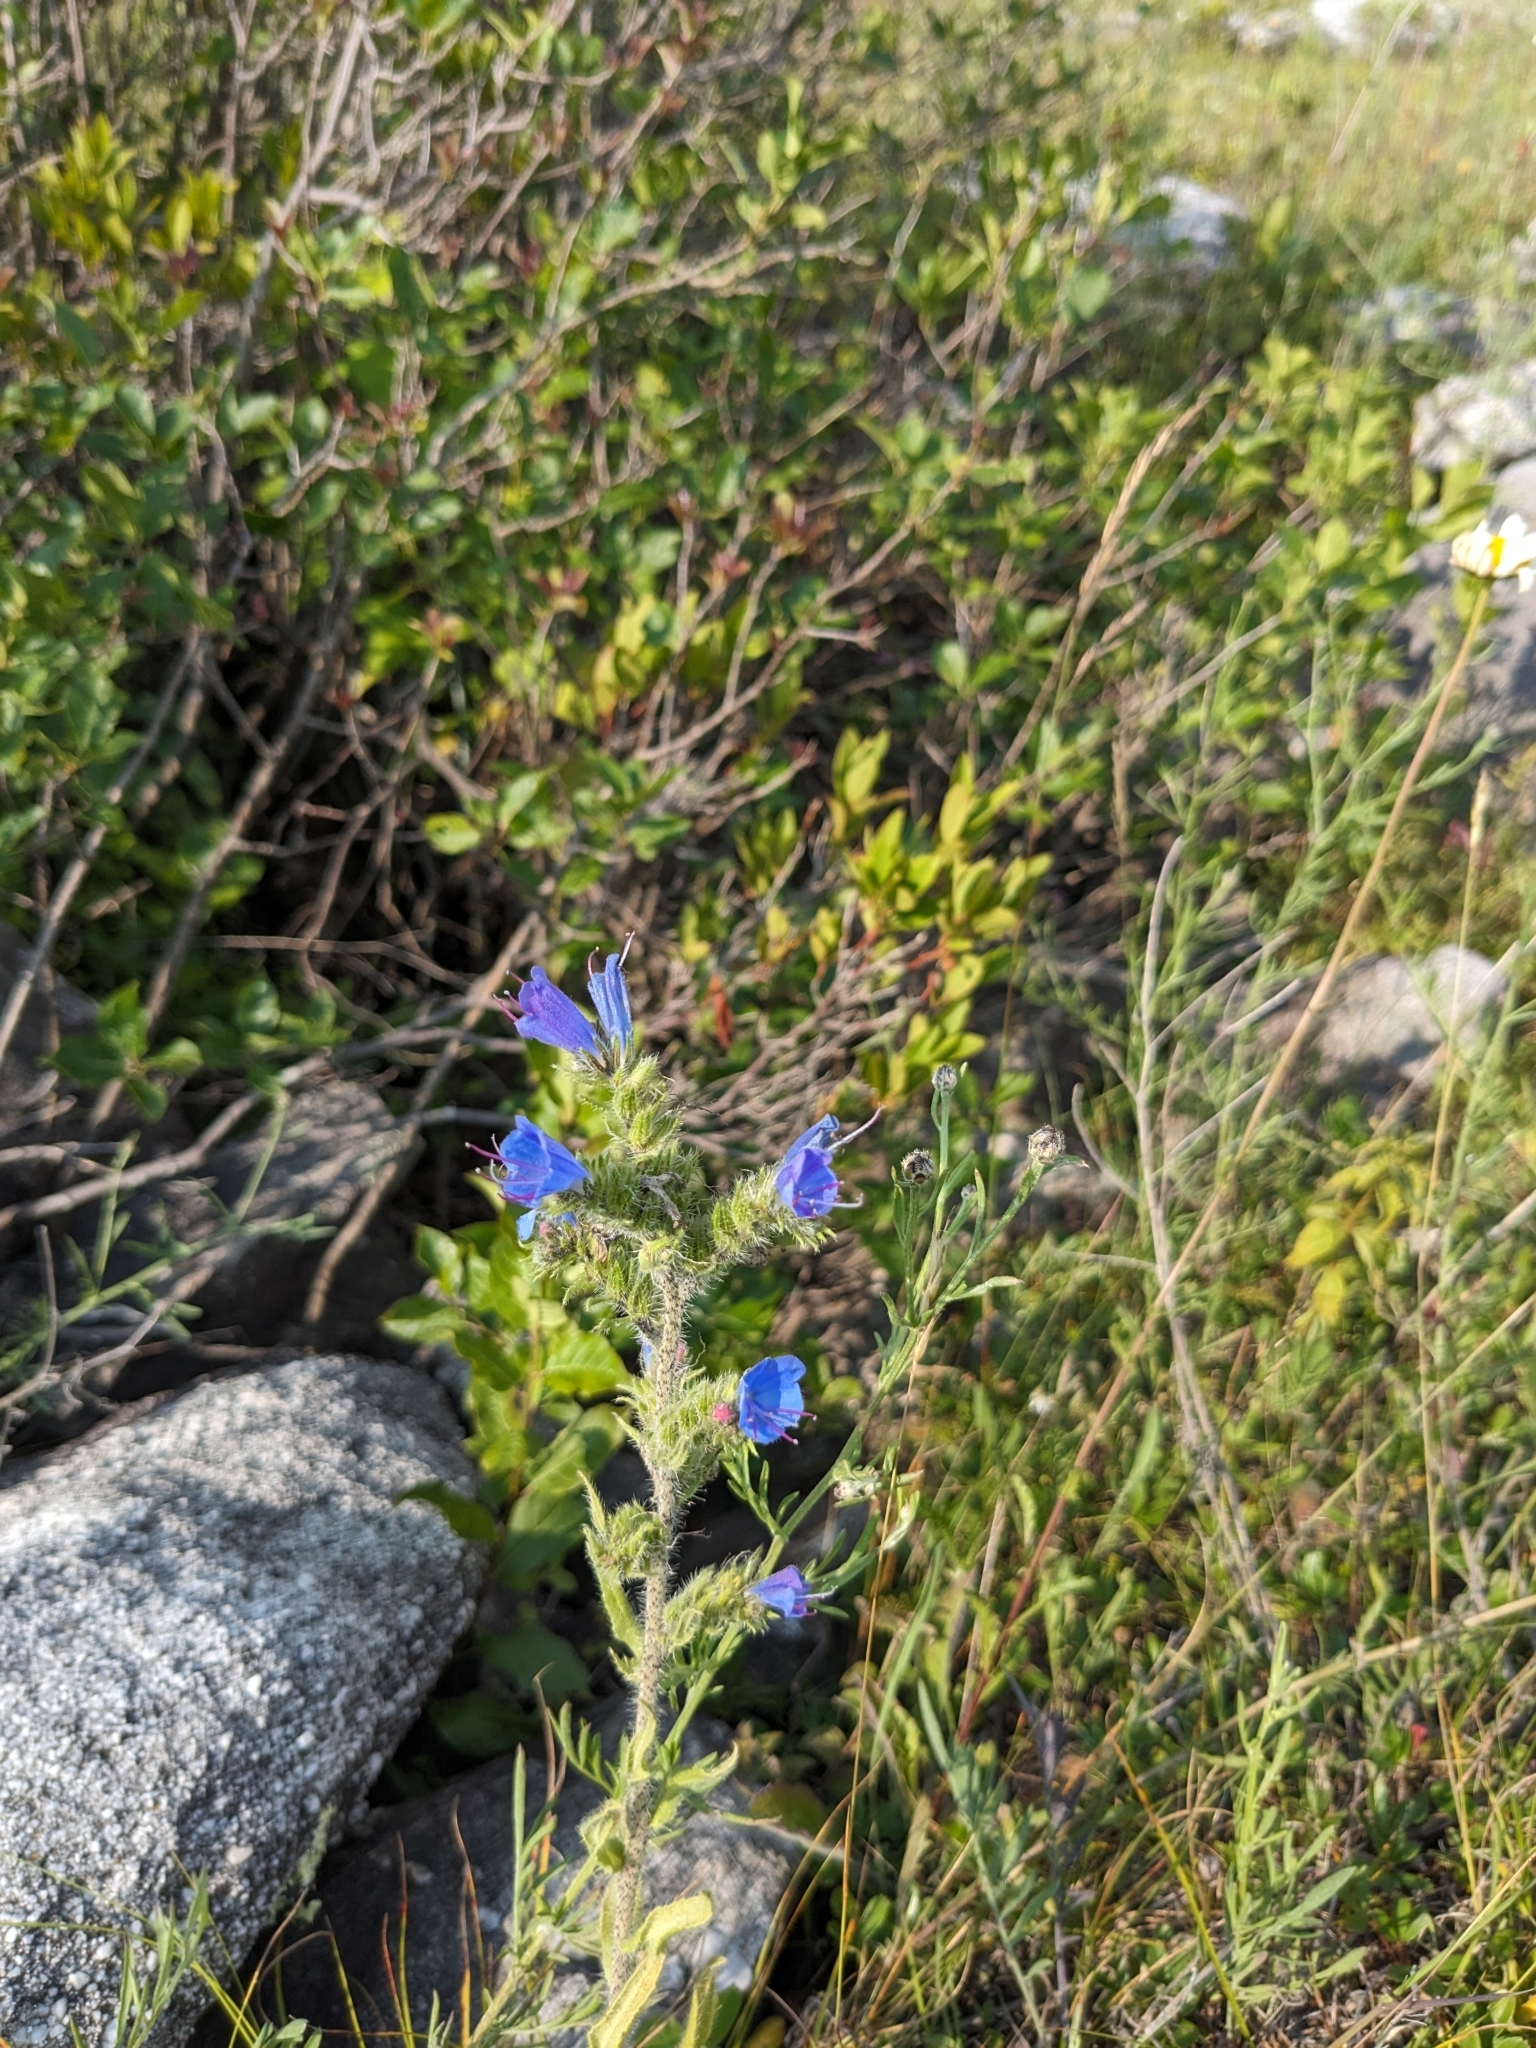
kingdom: Plantae
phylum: Tracheophyta
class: Magnoliopsida
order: Boraginales
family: Boraginaceae
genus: Echium
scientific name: Echium vulgare
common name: Common viper's bugloss
